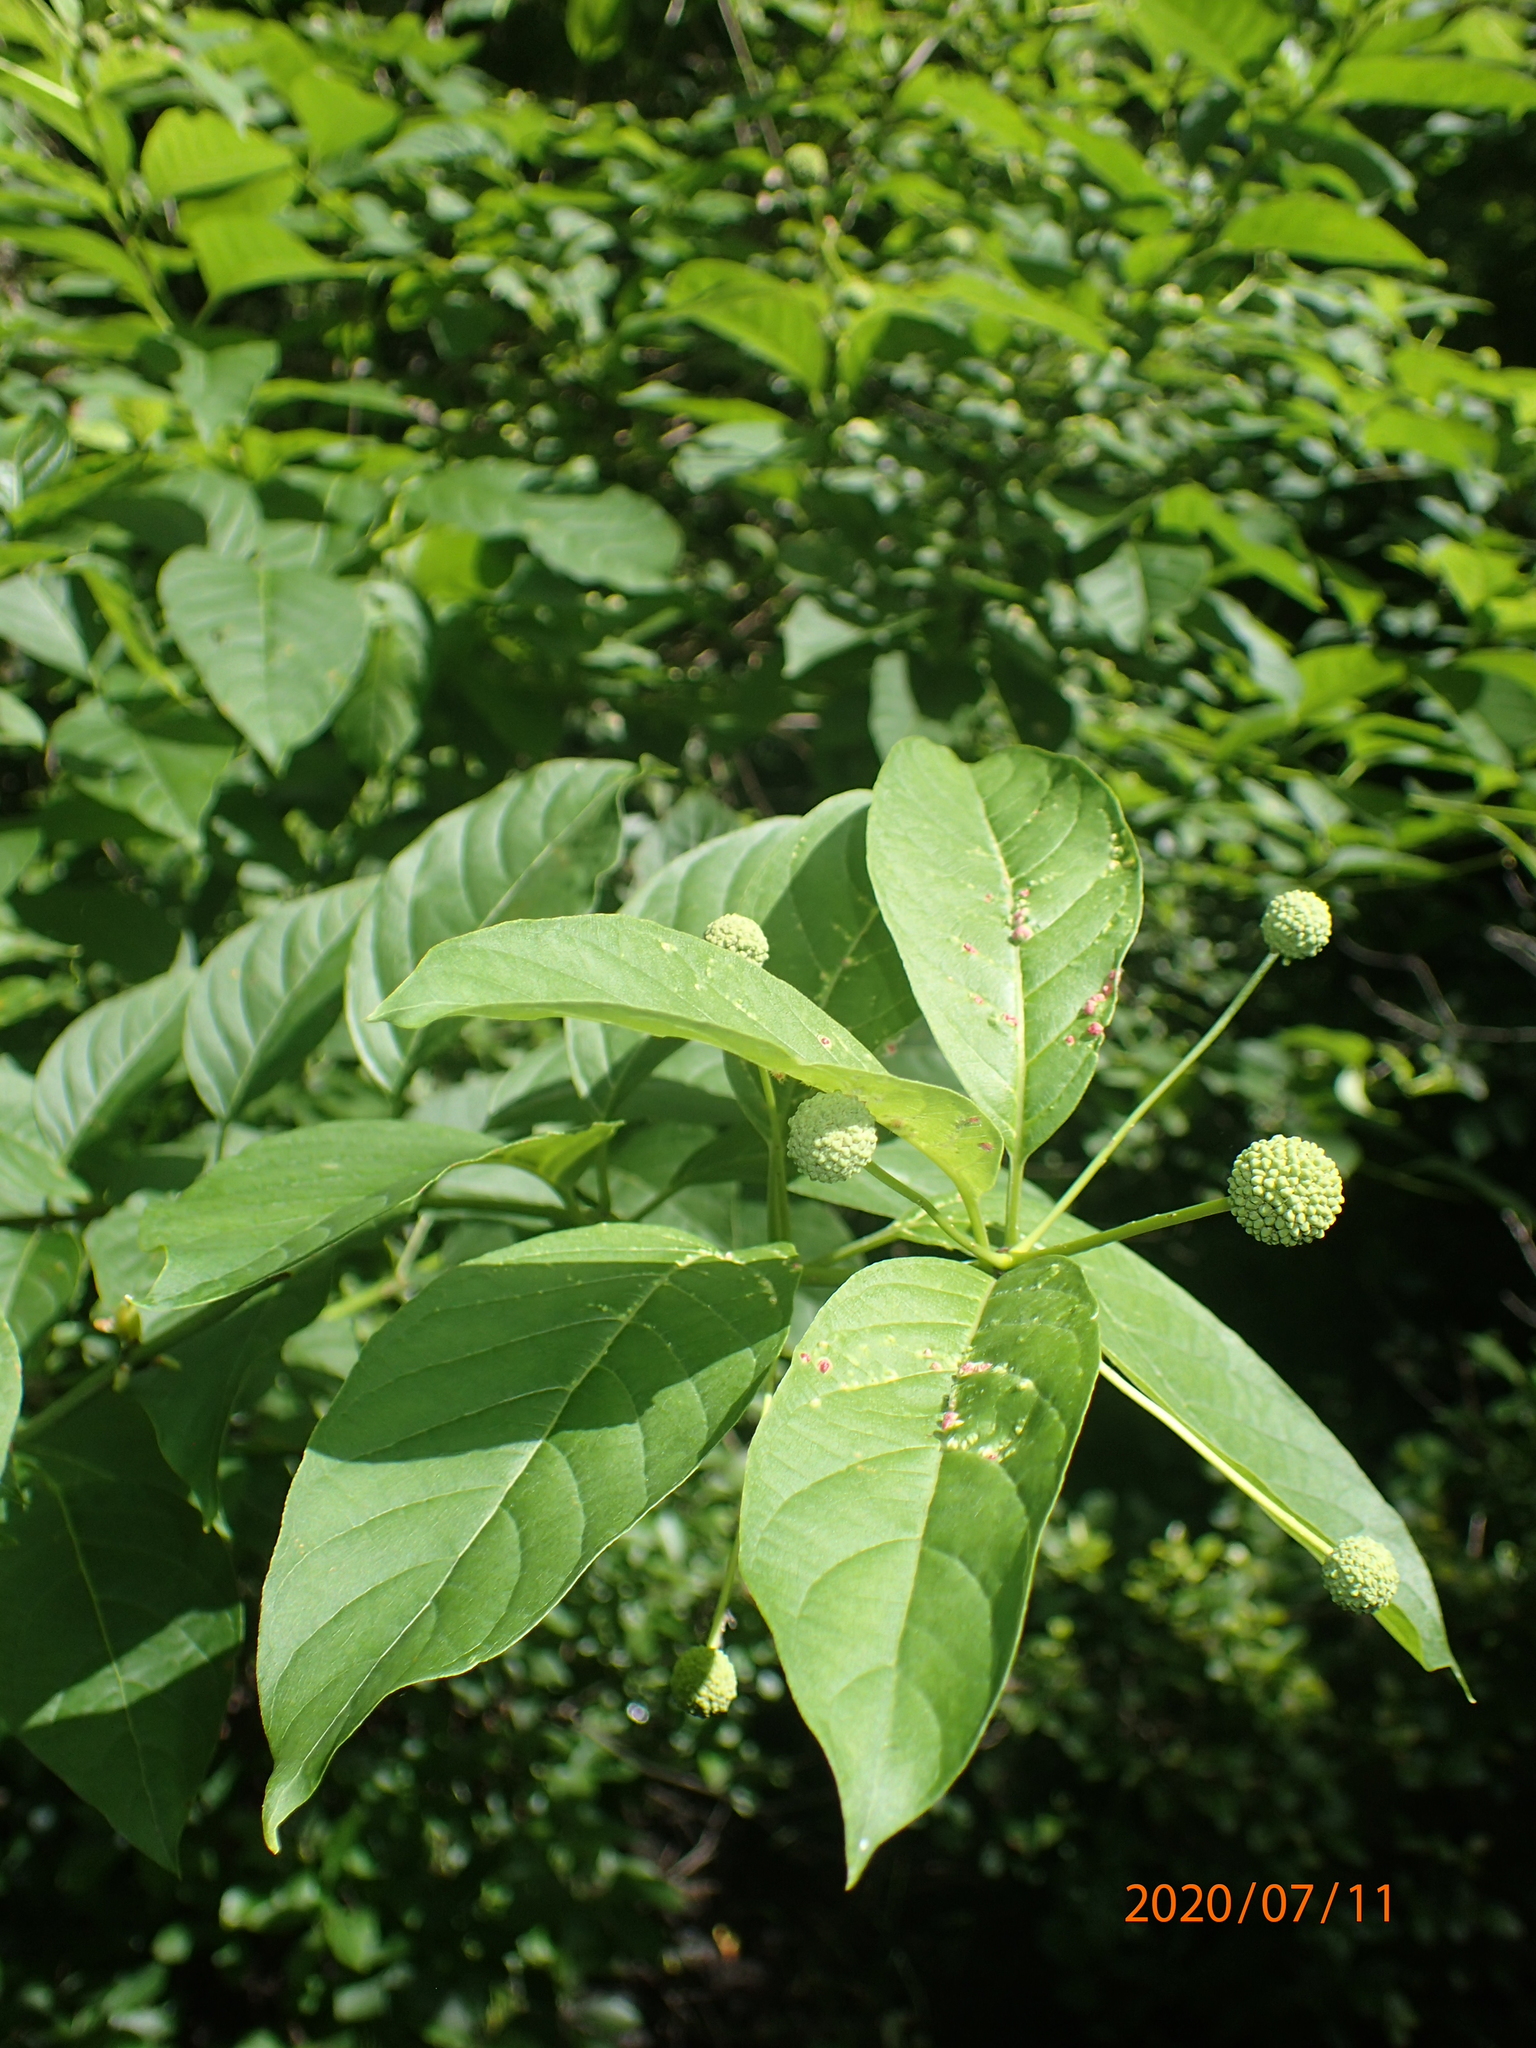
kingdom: Plantae
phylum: Tracheophyta
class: Magnoliopsida
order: Gentianales
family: Rubiaceae
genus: Cephalanthus
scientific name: Cephalanthus occidentalis
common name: Button-willow
